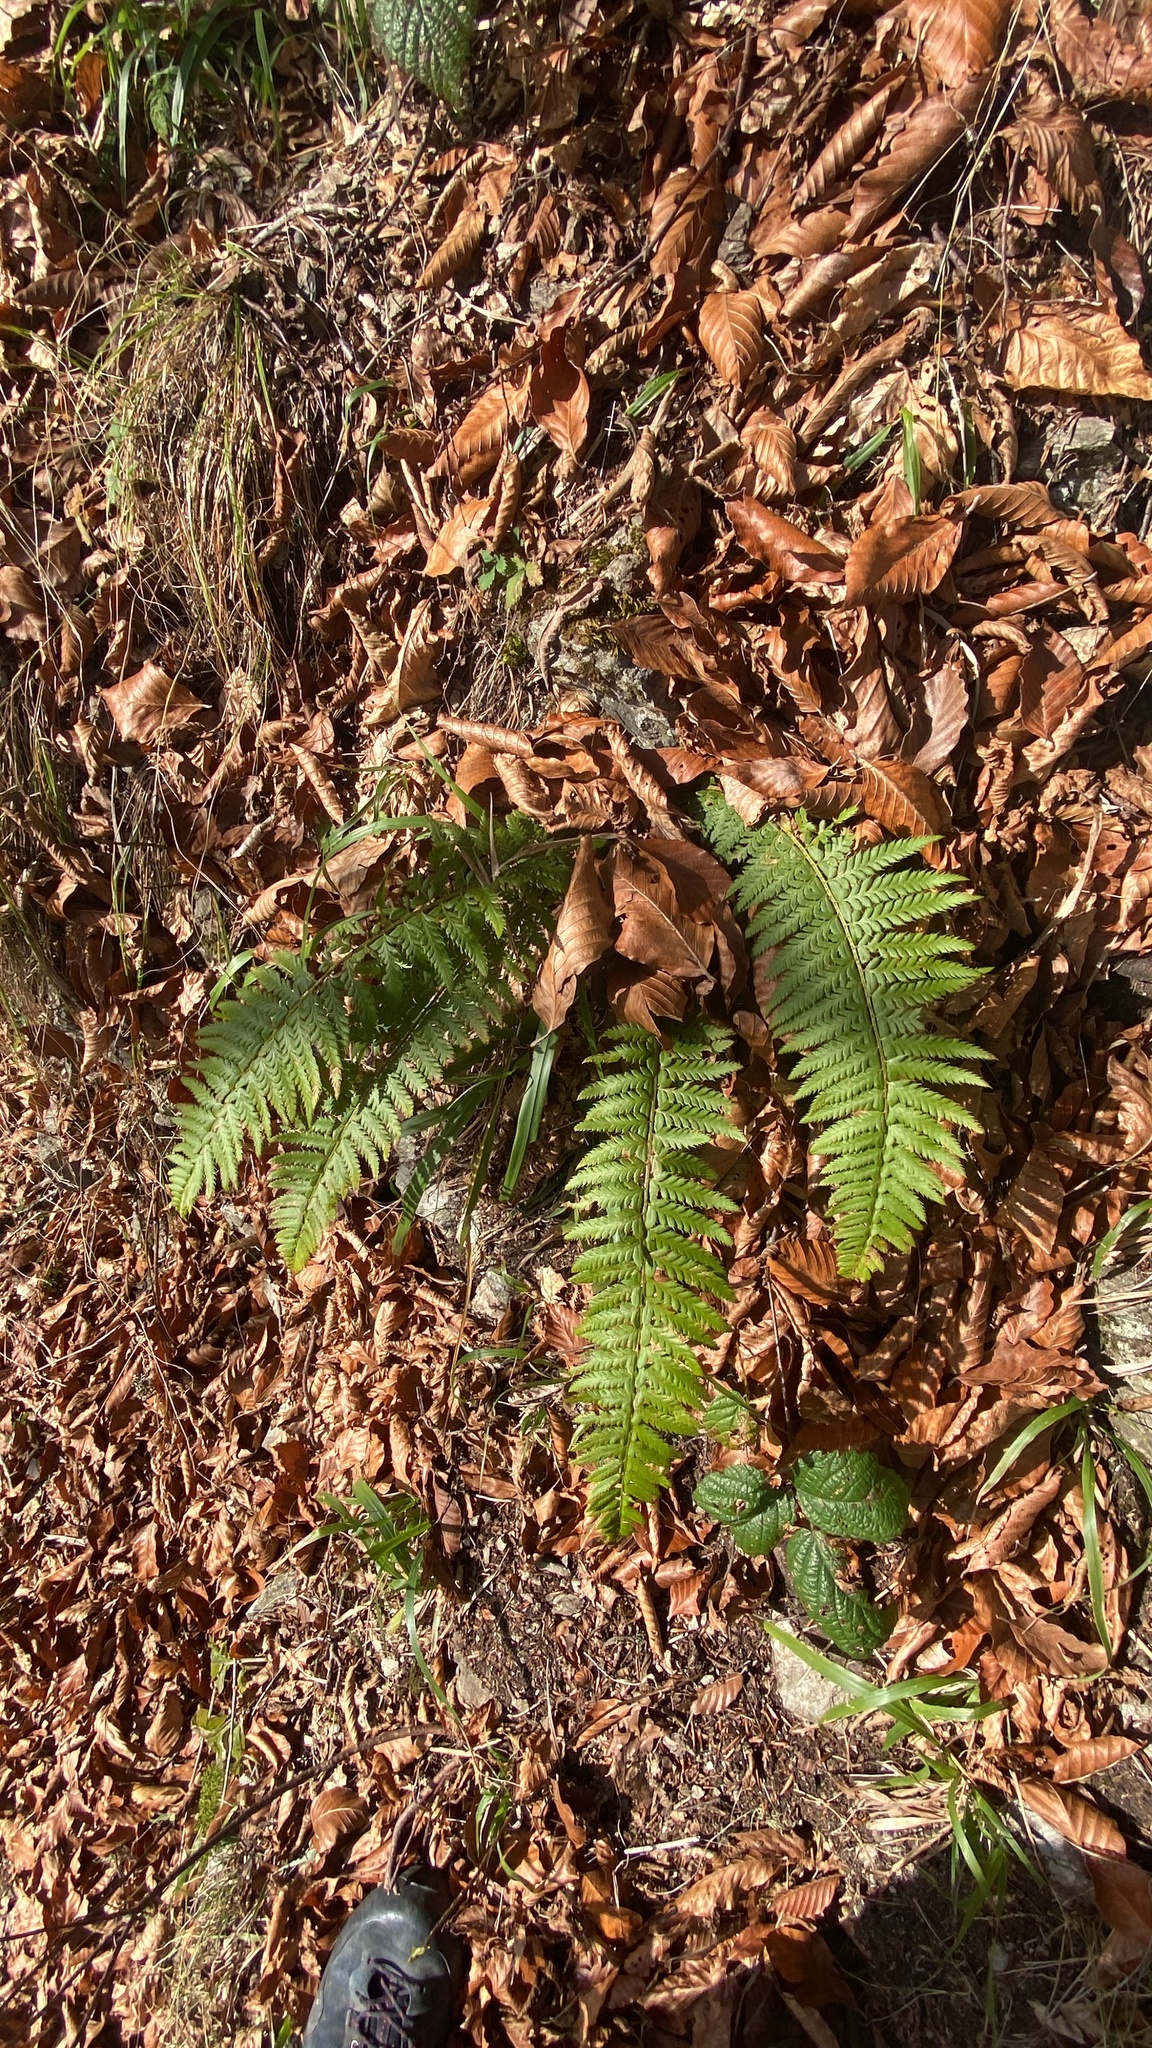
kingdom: Plantae
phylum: Tracheophyta
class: Polypodiopsida
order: Polypodiales
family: Dryopteridaceae
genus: Polystichum
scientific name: Polystichum aculeatum
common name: Hard shield-fern
